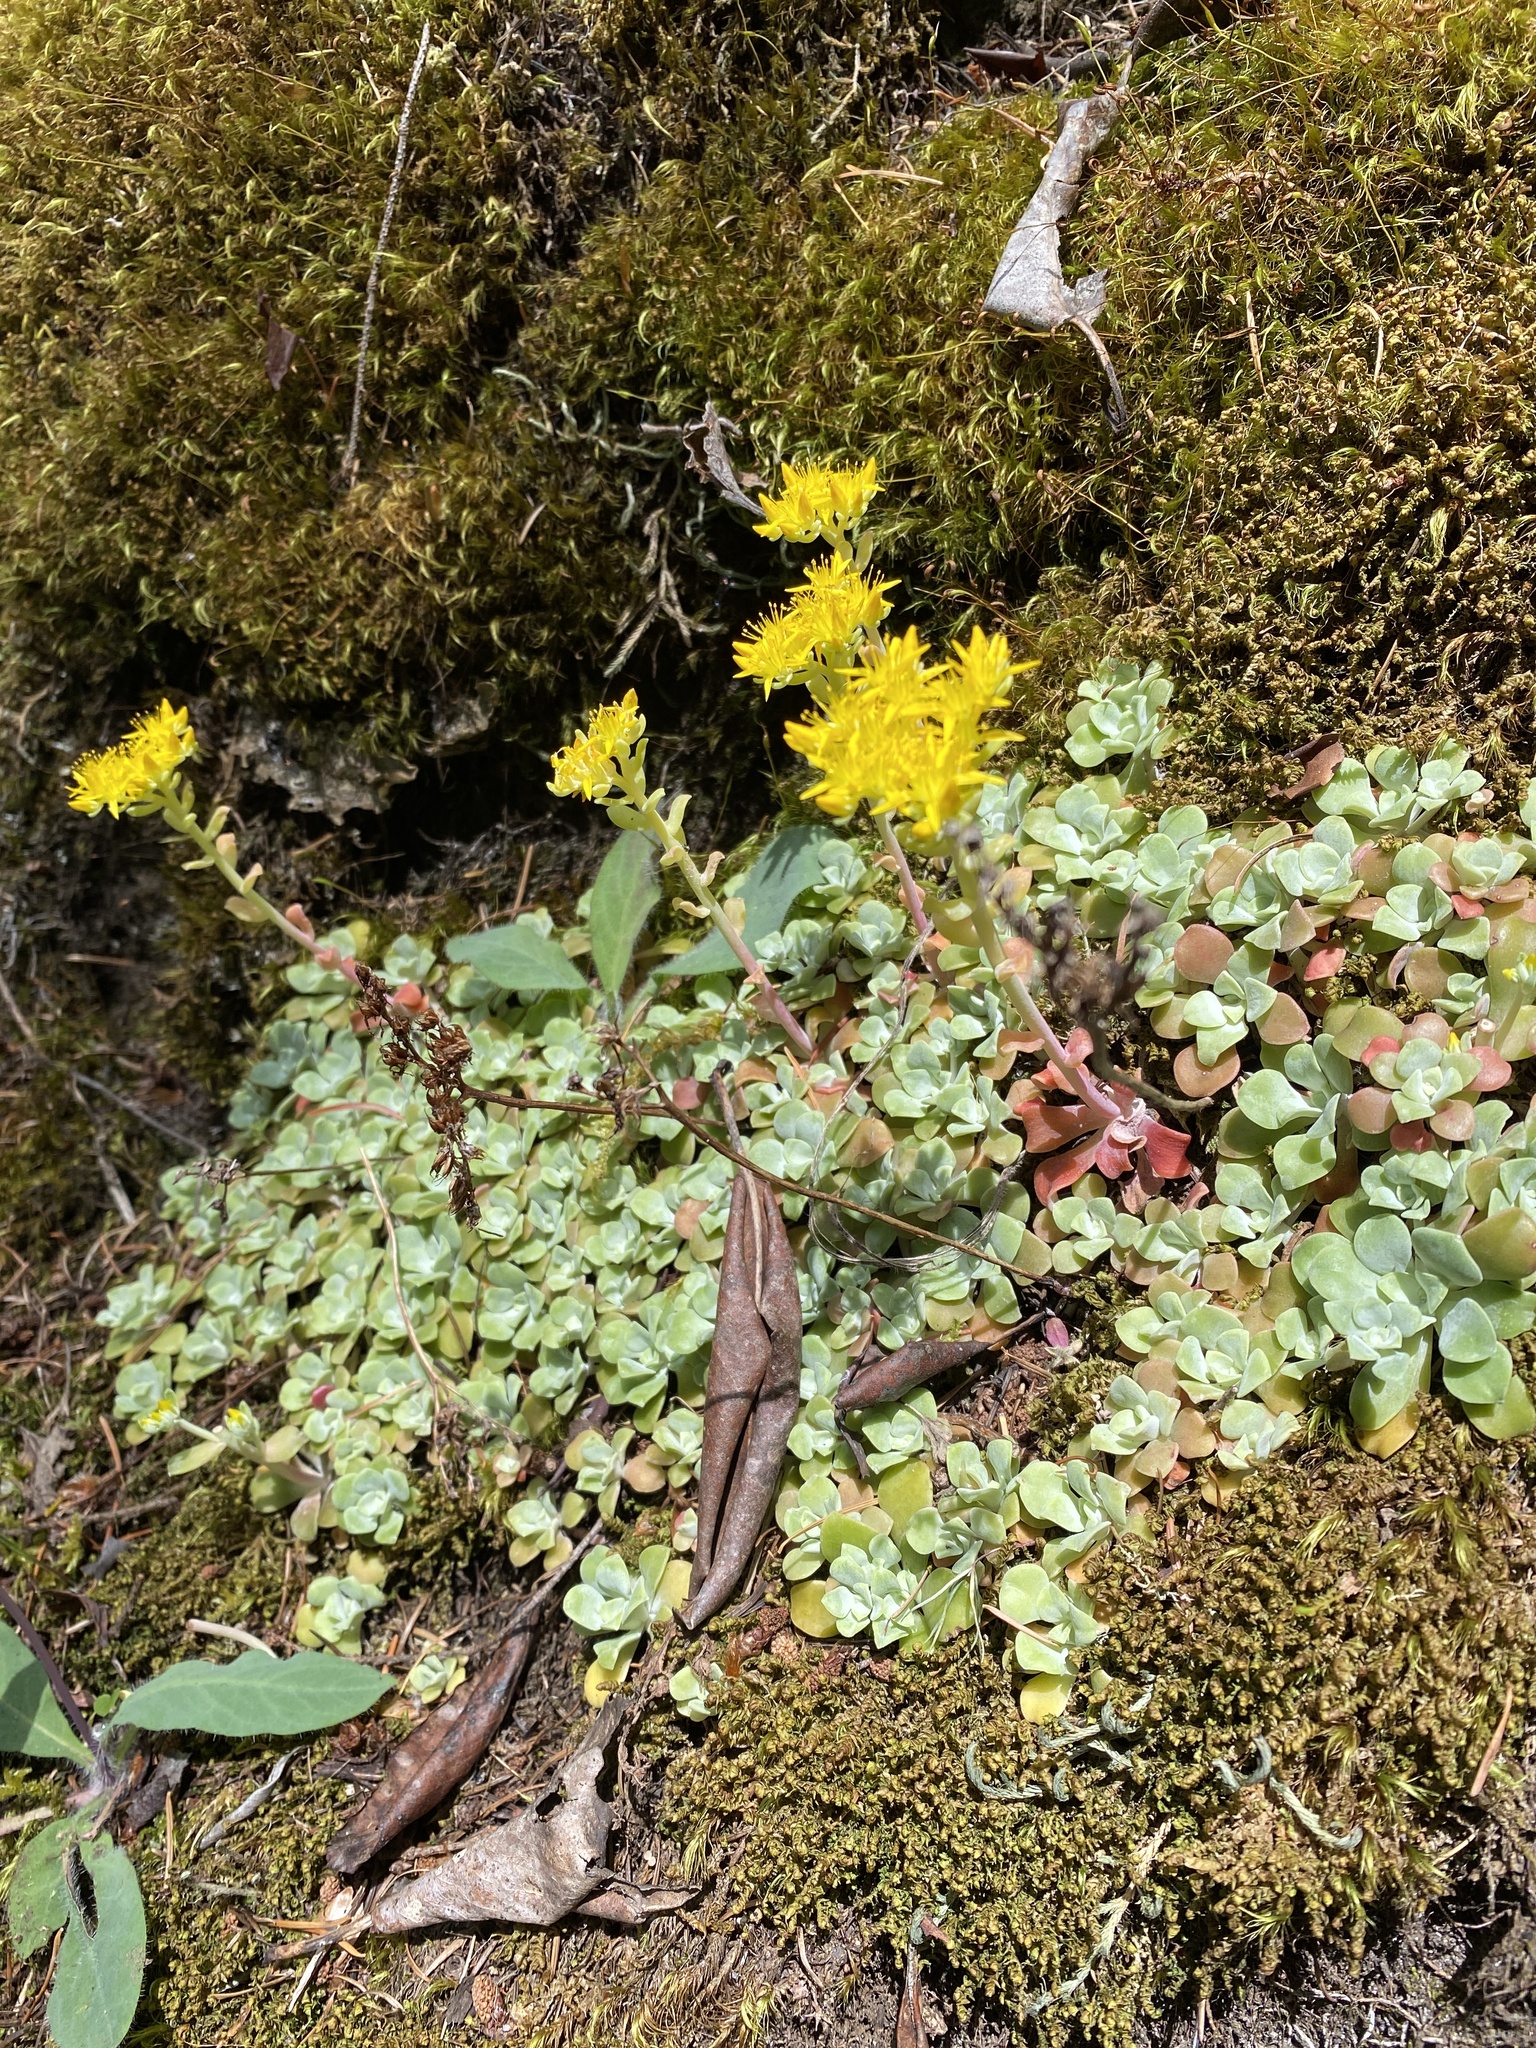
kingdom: Plantae
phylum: Tracheophyta
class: Magnoliopsida
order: Saxifragales
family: Crassulaceae
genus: Sedum
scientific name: Sedum spathulifolium
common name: Colorado stonecrop
